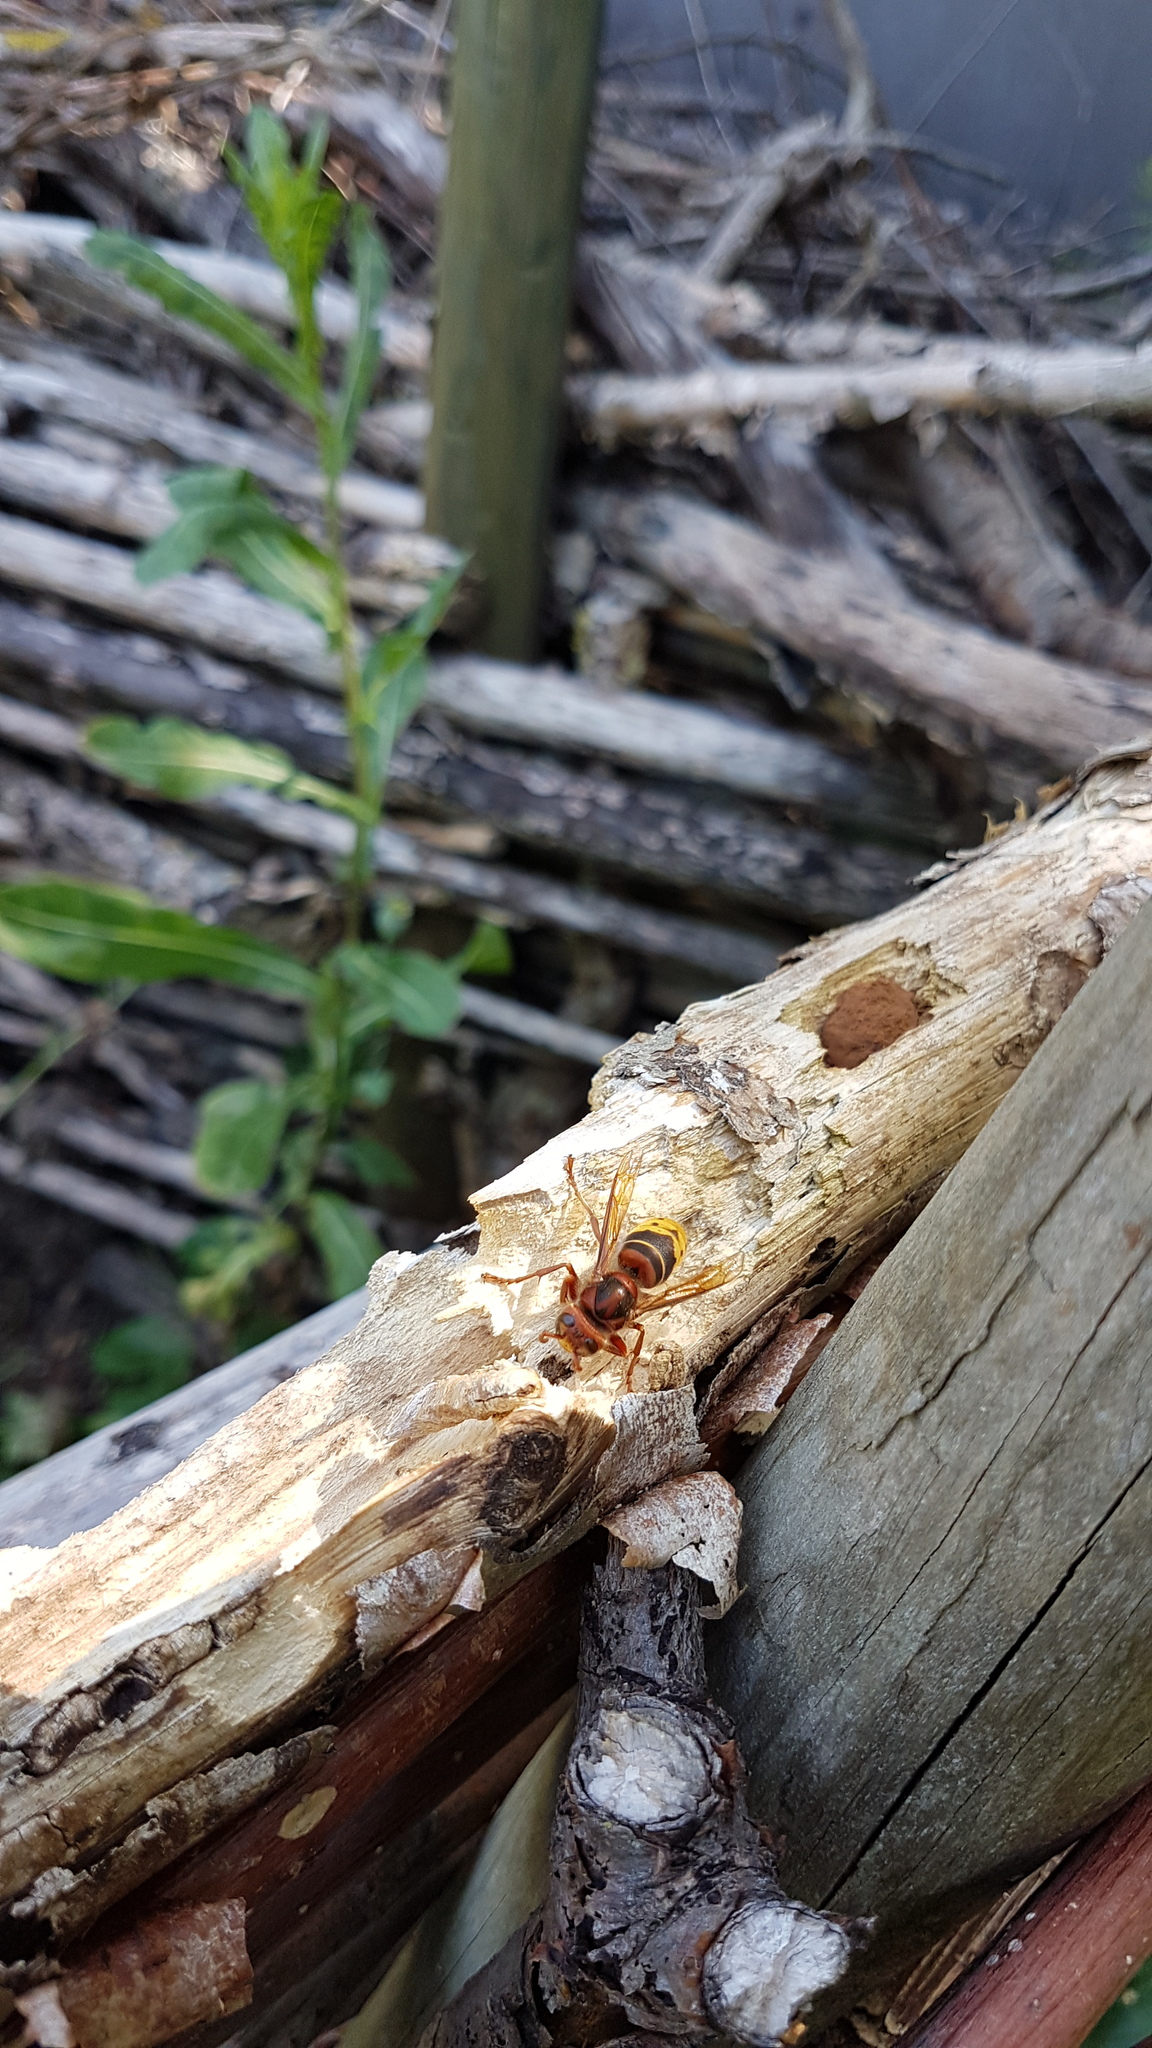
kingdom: Animalia
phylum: Arthropoda
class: Insecta
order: Hymenoptera
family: Vespidae
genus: Vespa
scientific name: Vespa crabro
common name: Hornet
